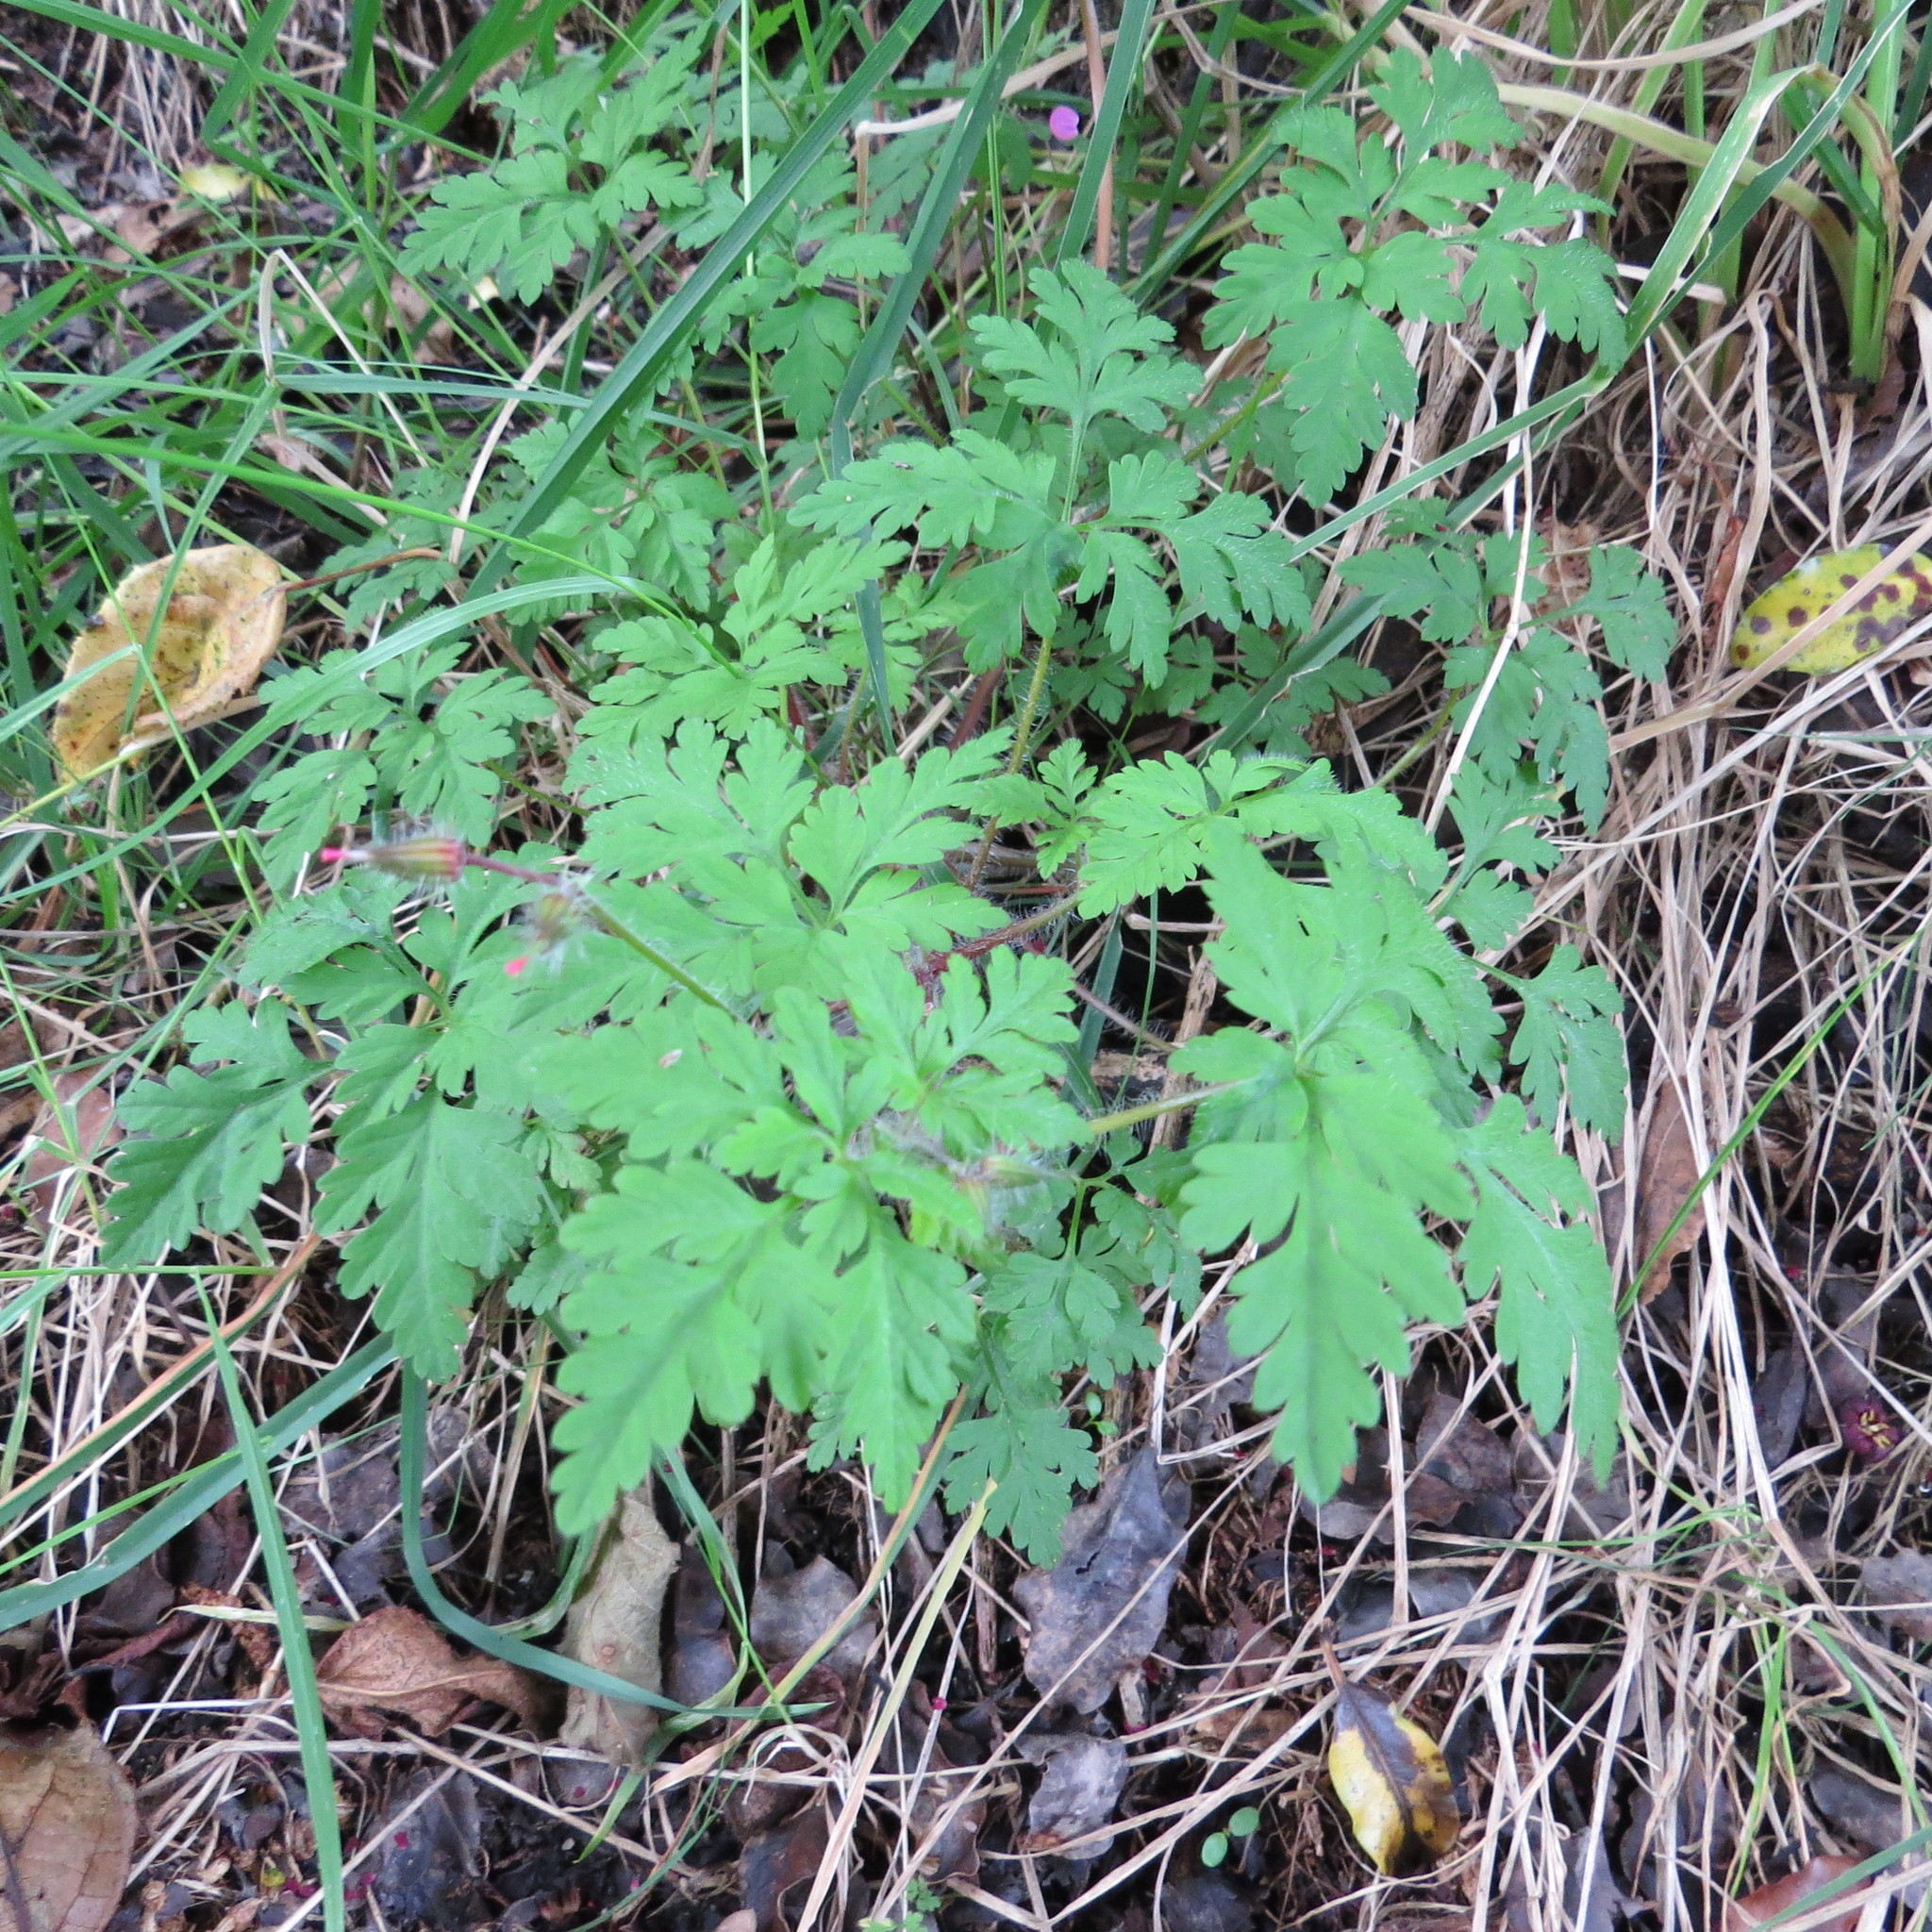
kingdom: Plantae
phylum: Tracheophyta
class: Magnoliopsida
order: Geraniales
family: Geraniaceae
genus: Geranium
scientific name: Geranium robertianum
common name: Herb-robert
